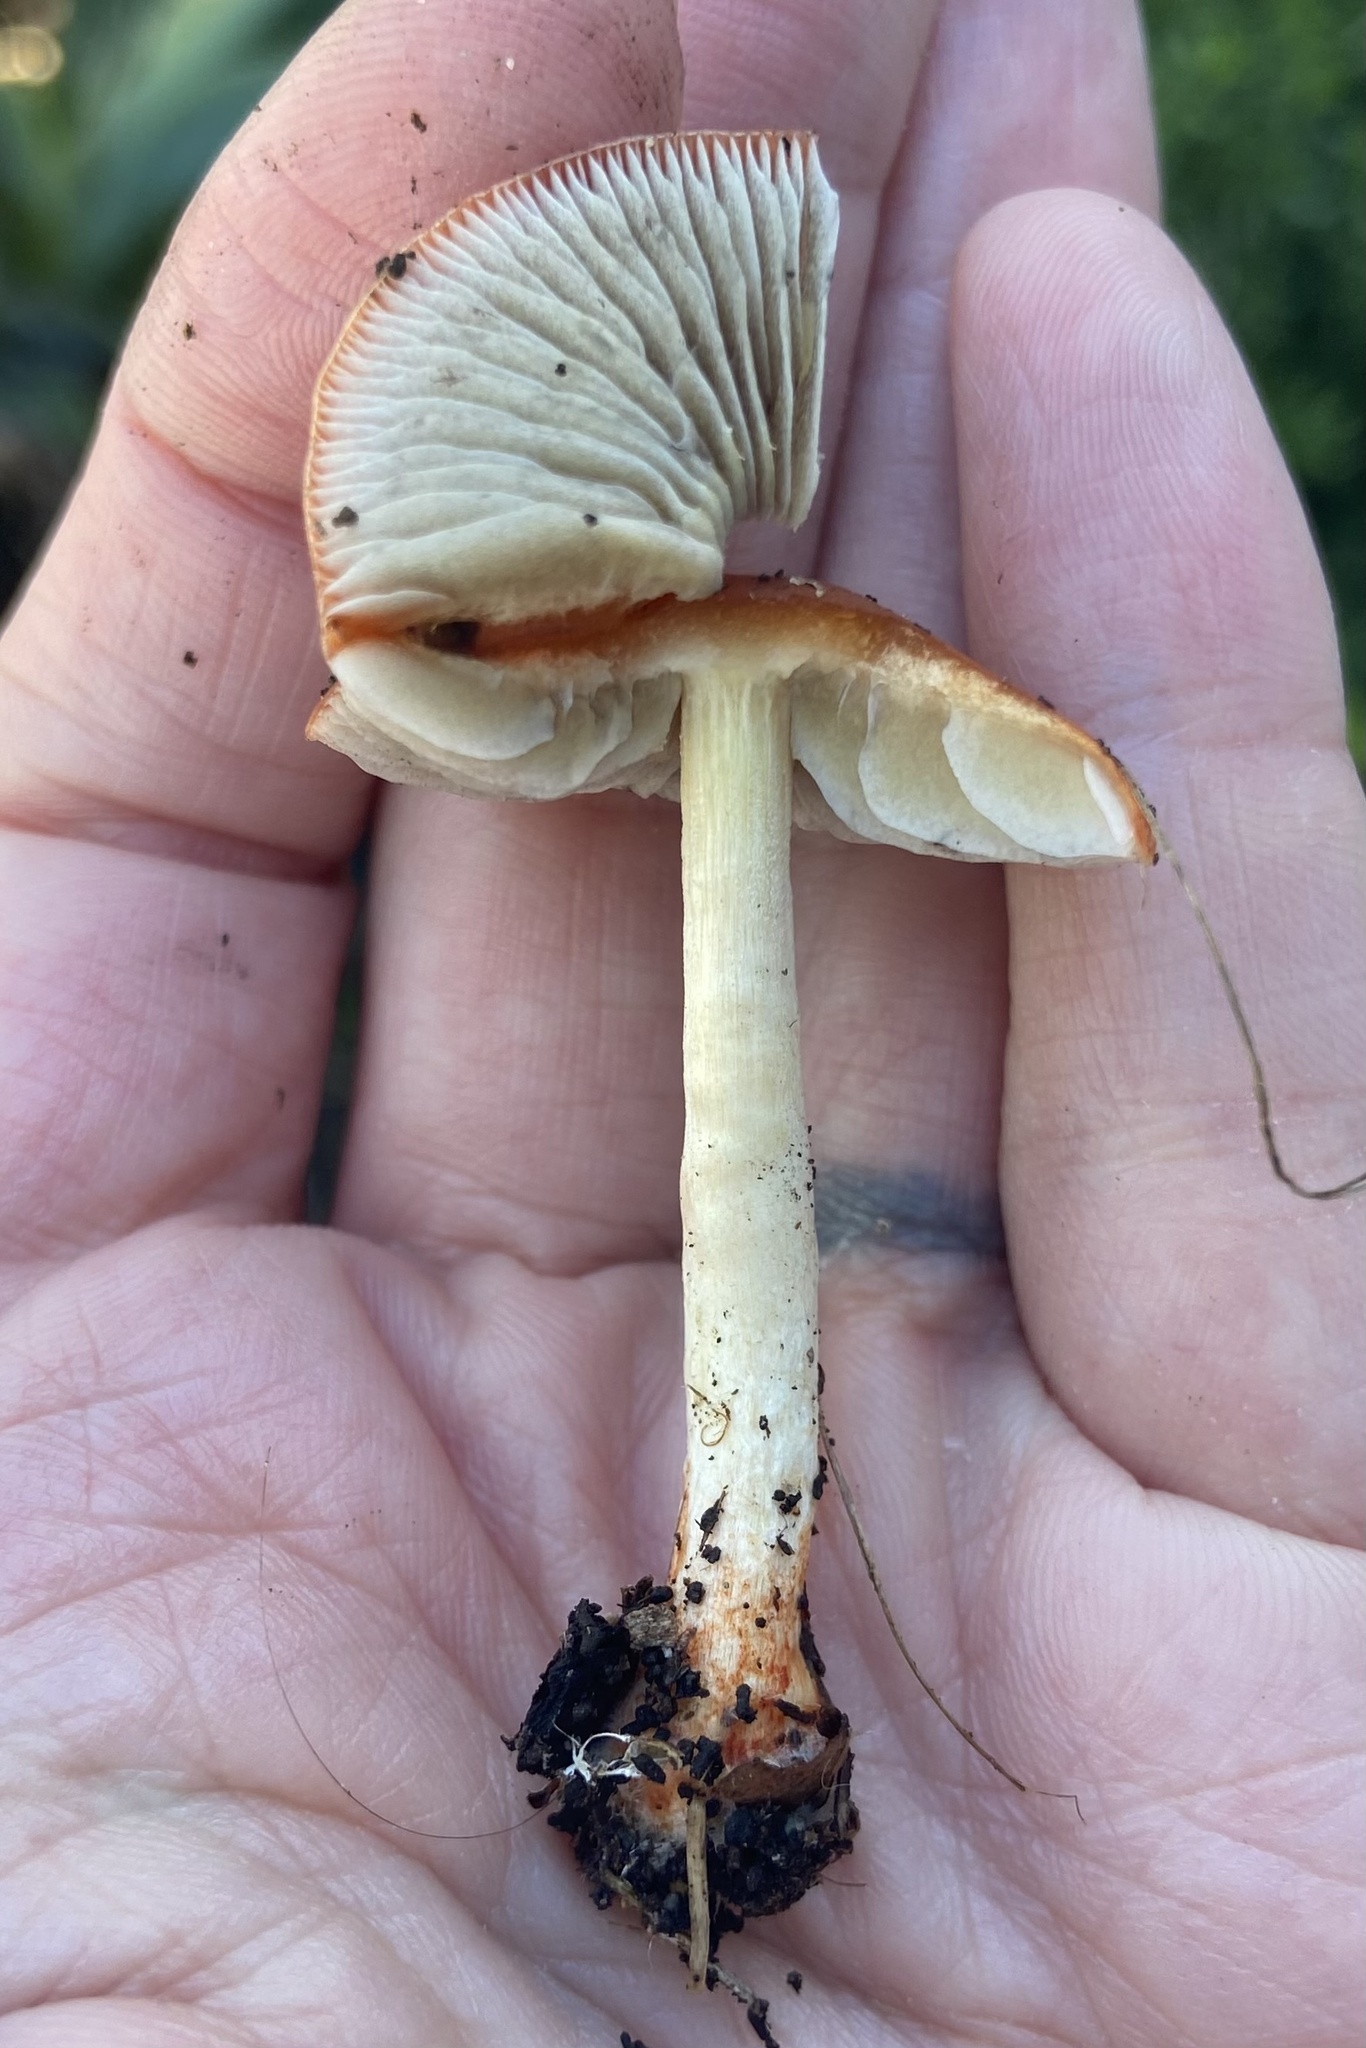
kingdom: Fungi
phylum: Basidiomycota
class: Agaricomycetes
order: Agaricales
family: Strophariaceae
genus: Leratiomyces
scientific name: Leratiomyces ceres
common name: Redlead roundhead
